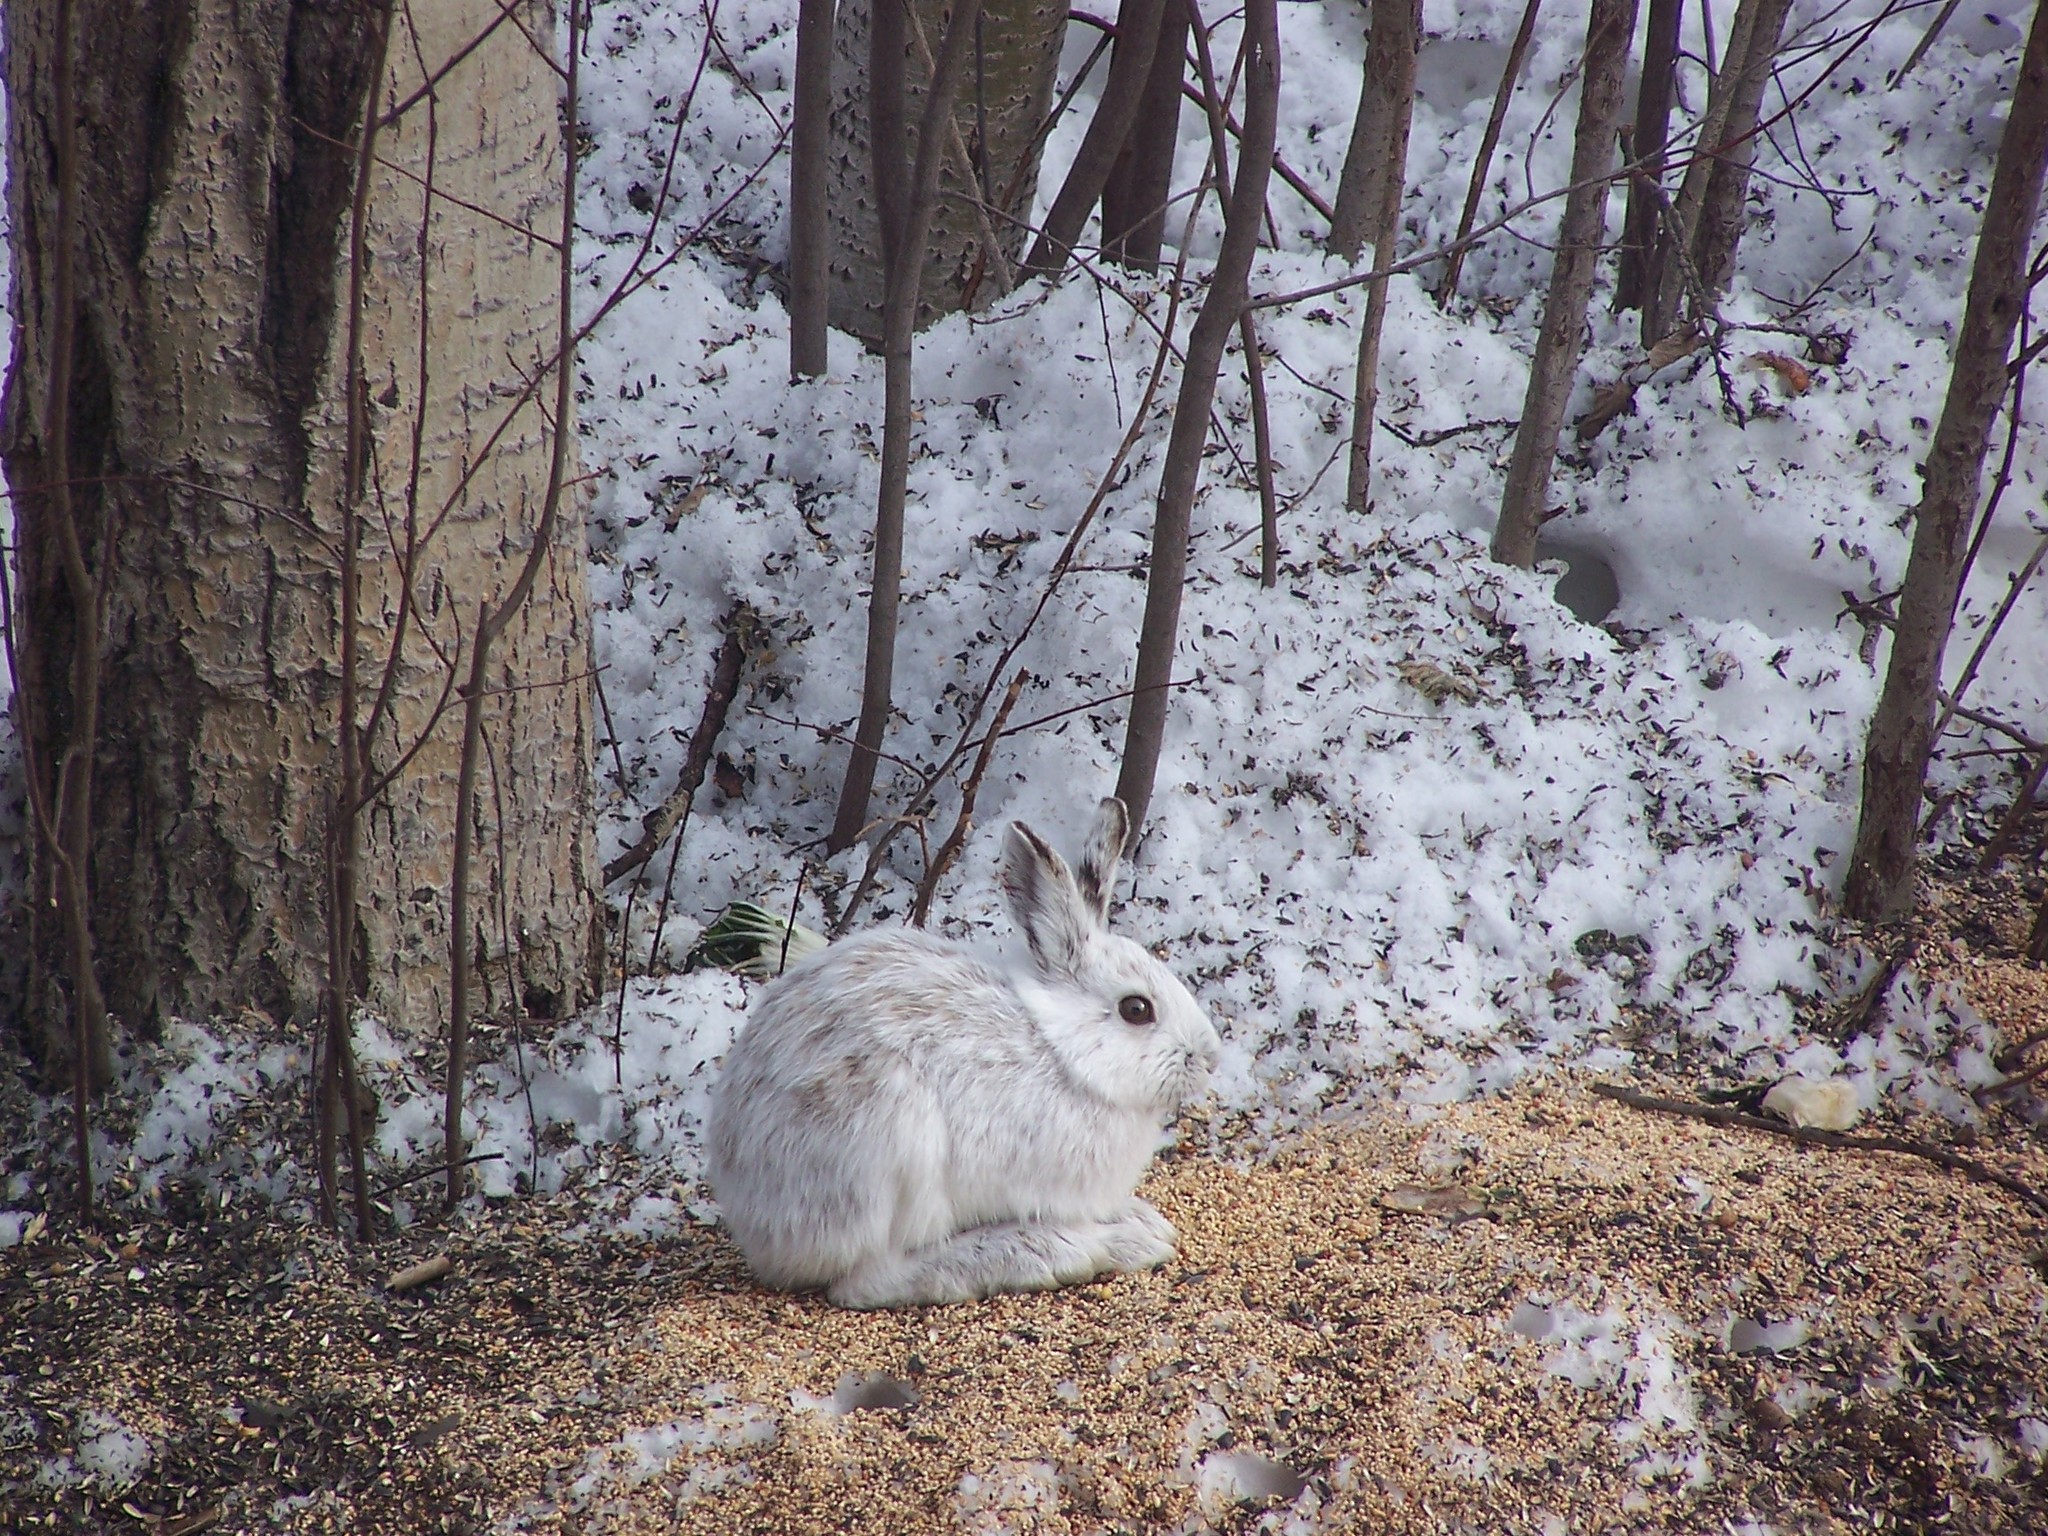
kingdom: Animalia
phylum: Chordata
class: Mammalia
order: Lagomorpha
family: Leporidae
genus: Lepus
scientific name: Lepus americanus
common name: Snowshoe hare
